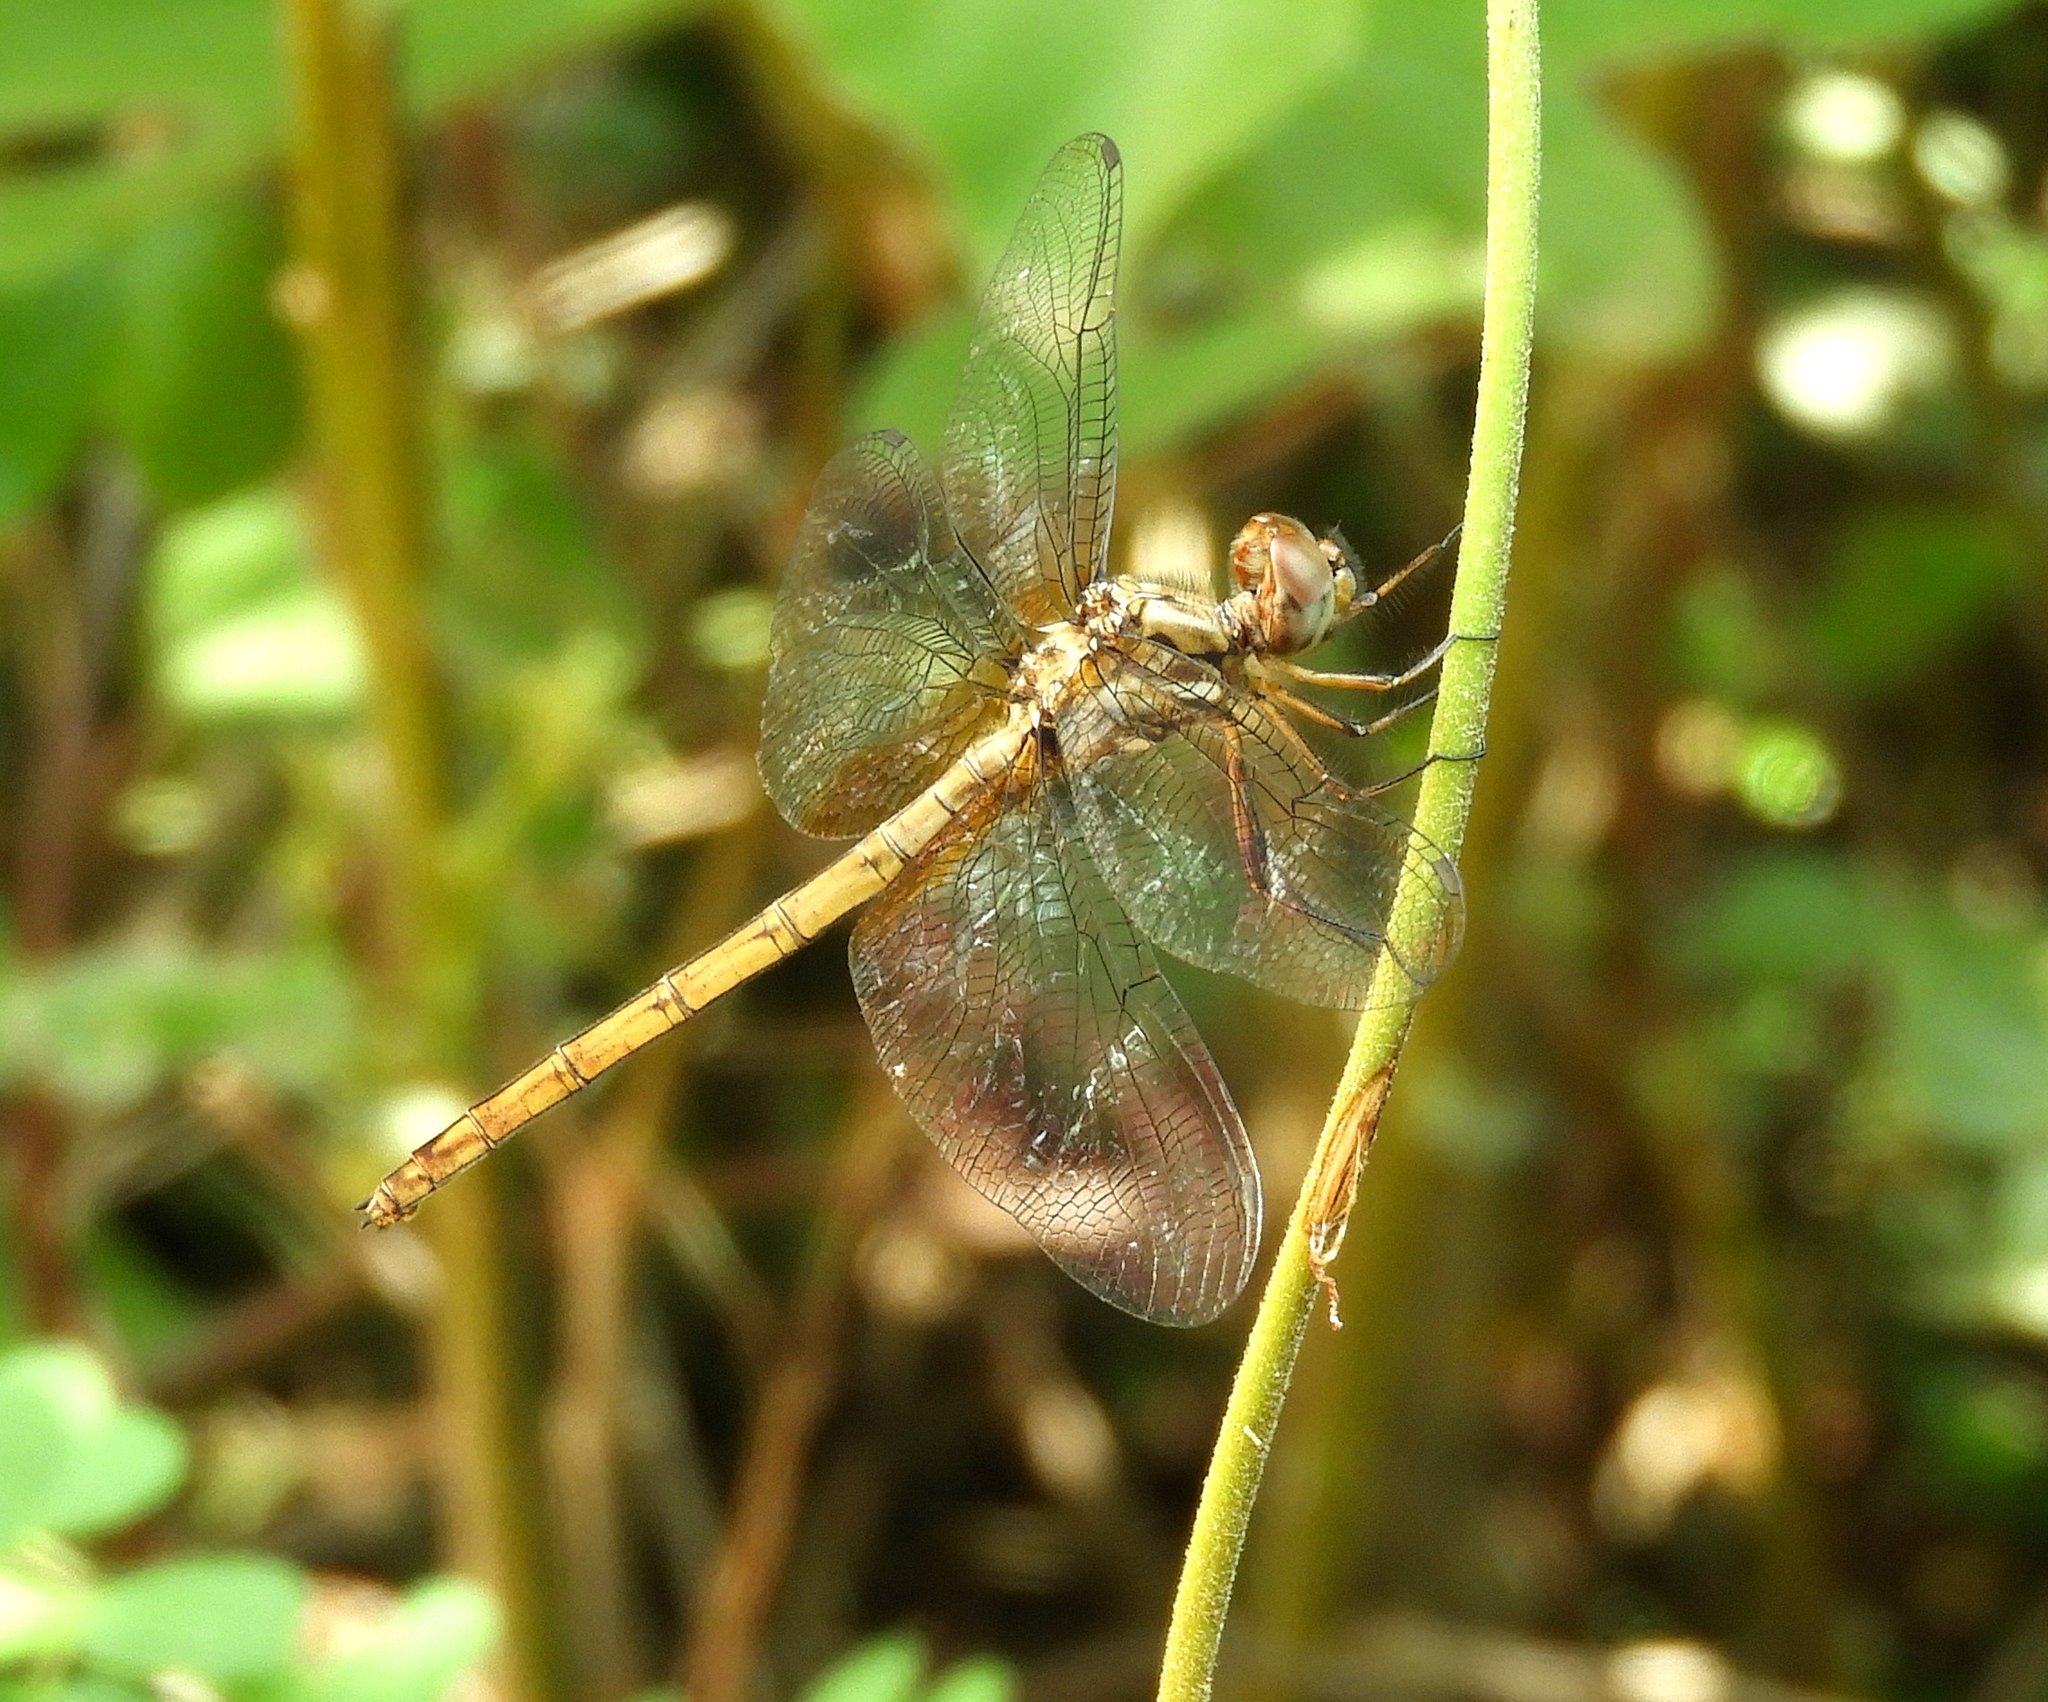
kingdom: Animalia
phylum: Arthropoda
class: Insecta
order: Odonata
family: Libellulidae
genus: Macrothemis
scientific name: Macrothemis inacuta
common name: Straw-colored sylph
